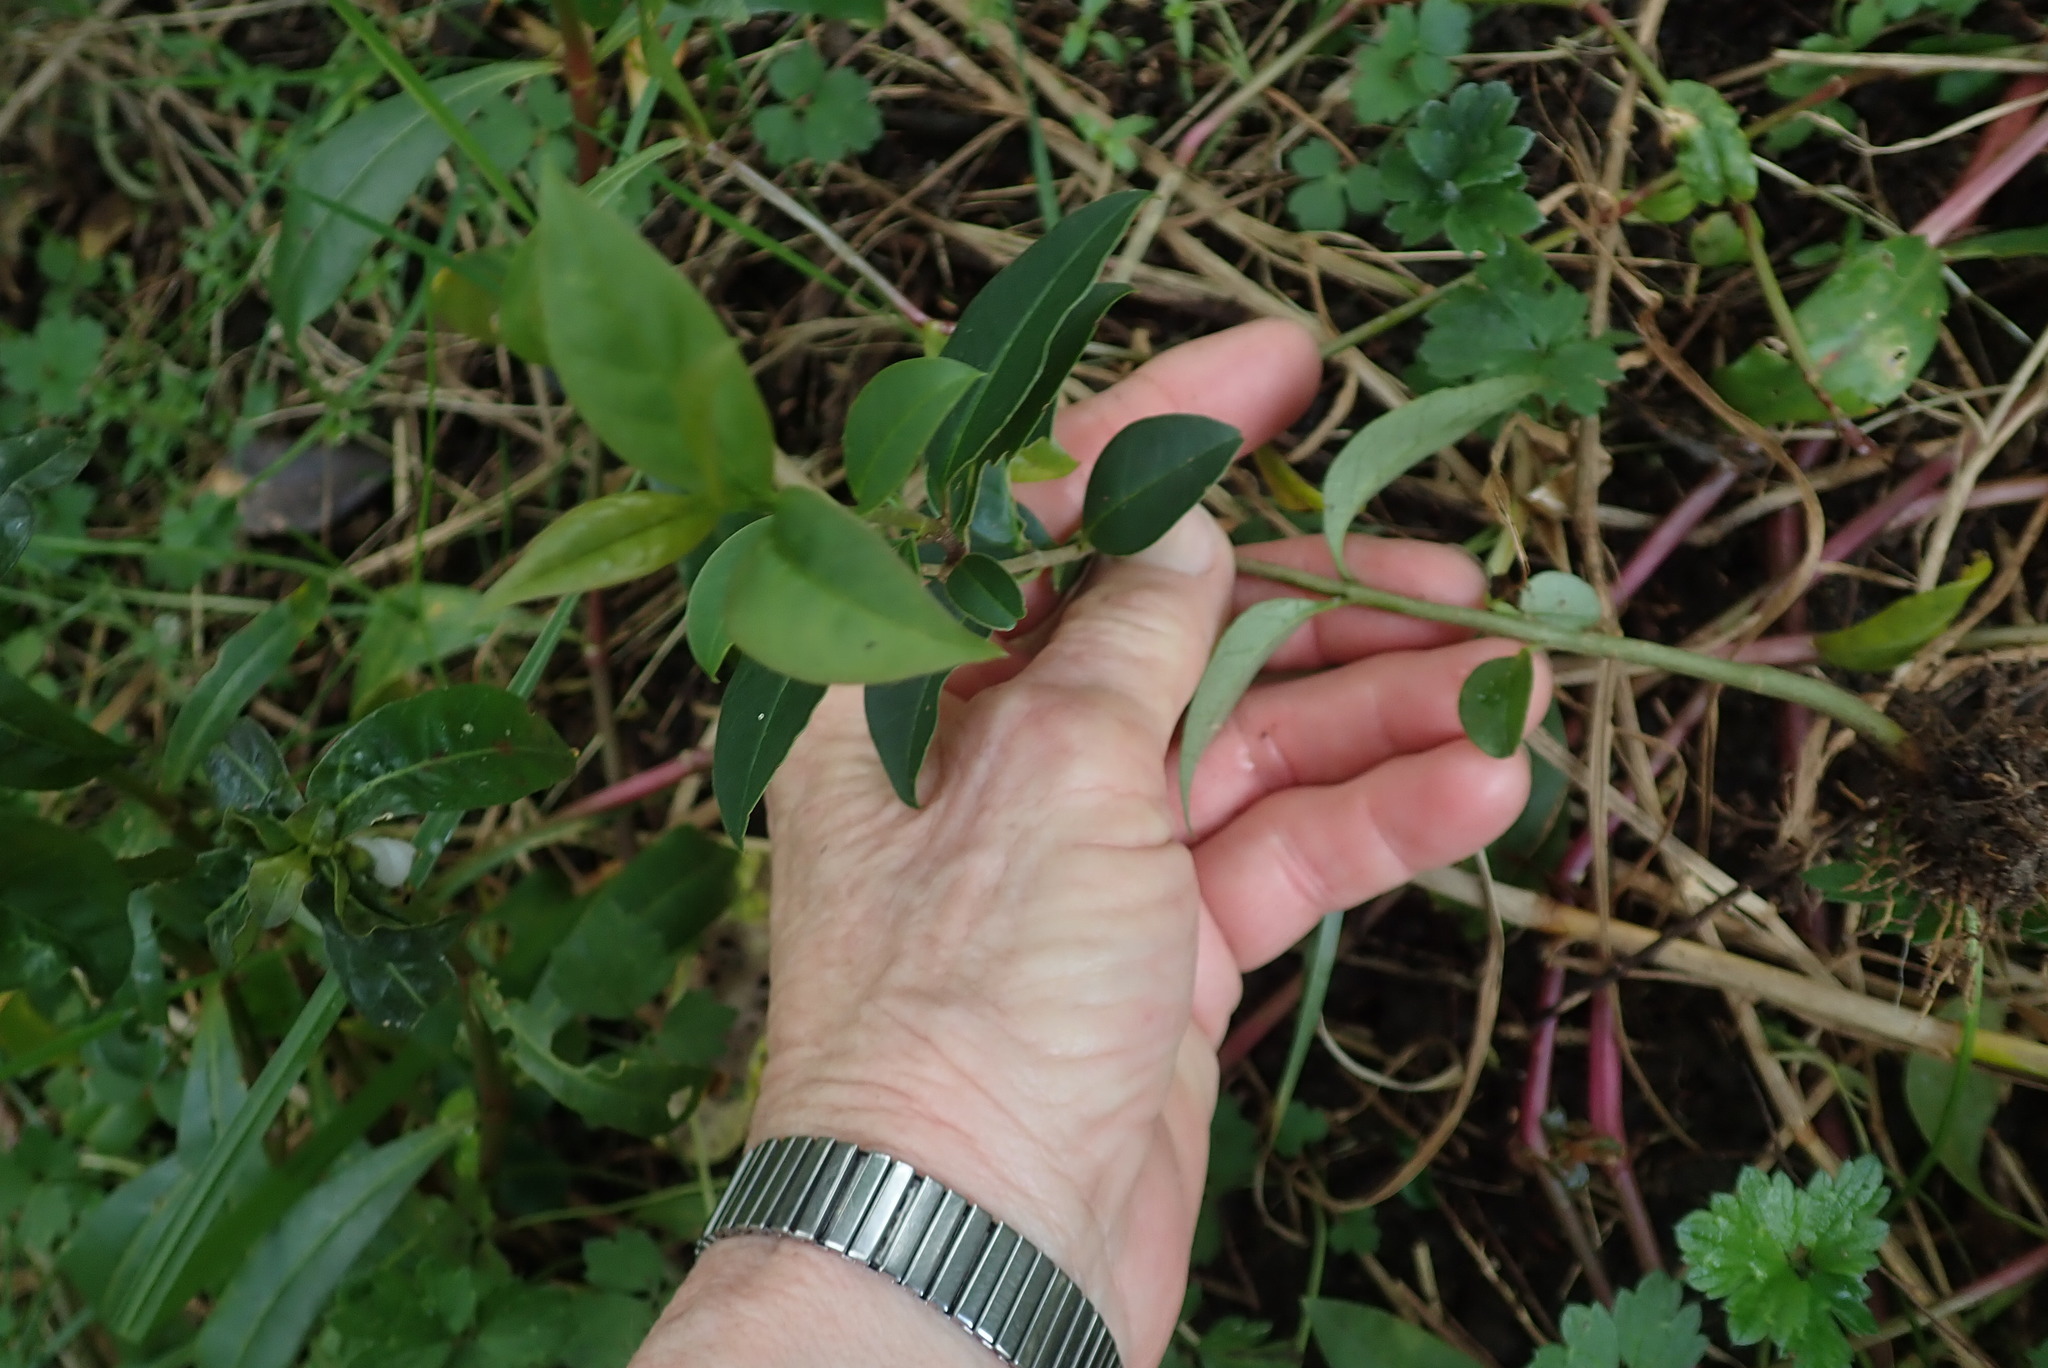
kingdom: Plantae
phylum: Tracheophyta
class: Magnoliopsida
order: Lamiales
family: Oleaceae
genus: Ligustrum
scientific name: Ligustrum lucidum
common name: Glossy privet
